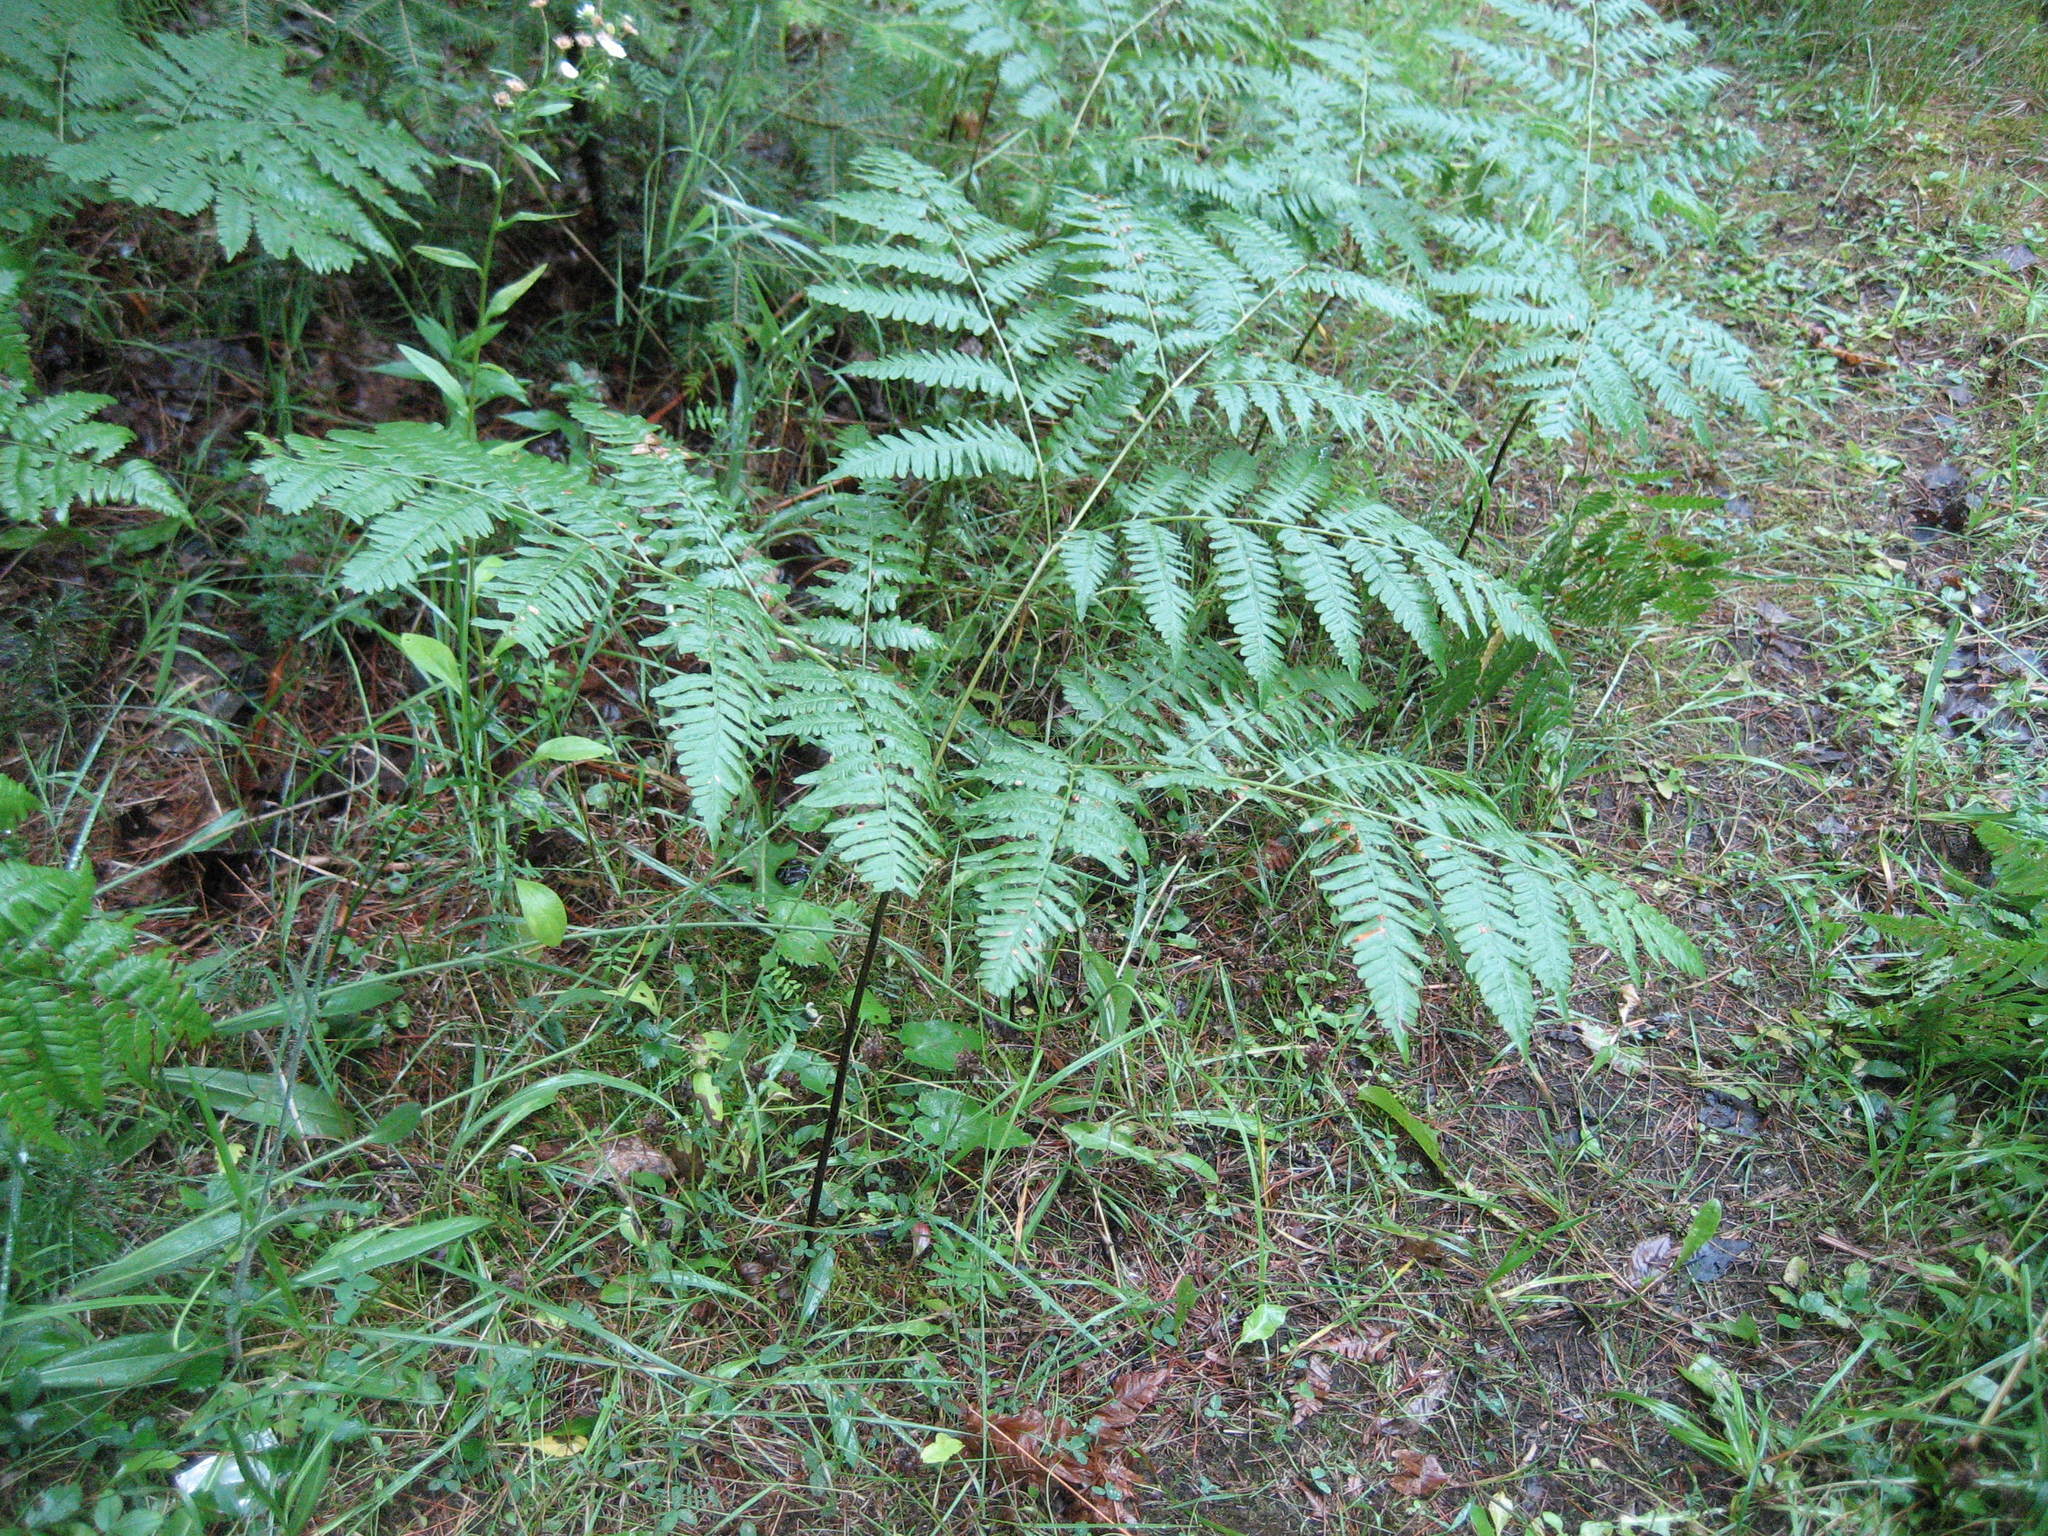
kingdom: Plantae
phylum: Tracheophyta
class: Polypodiopsida
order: Polypodiales
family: Dennstaedtiaceae
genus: Pteridium
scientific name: Pteridium aquilinum
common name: Bracken
